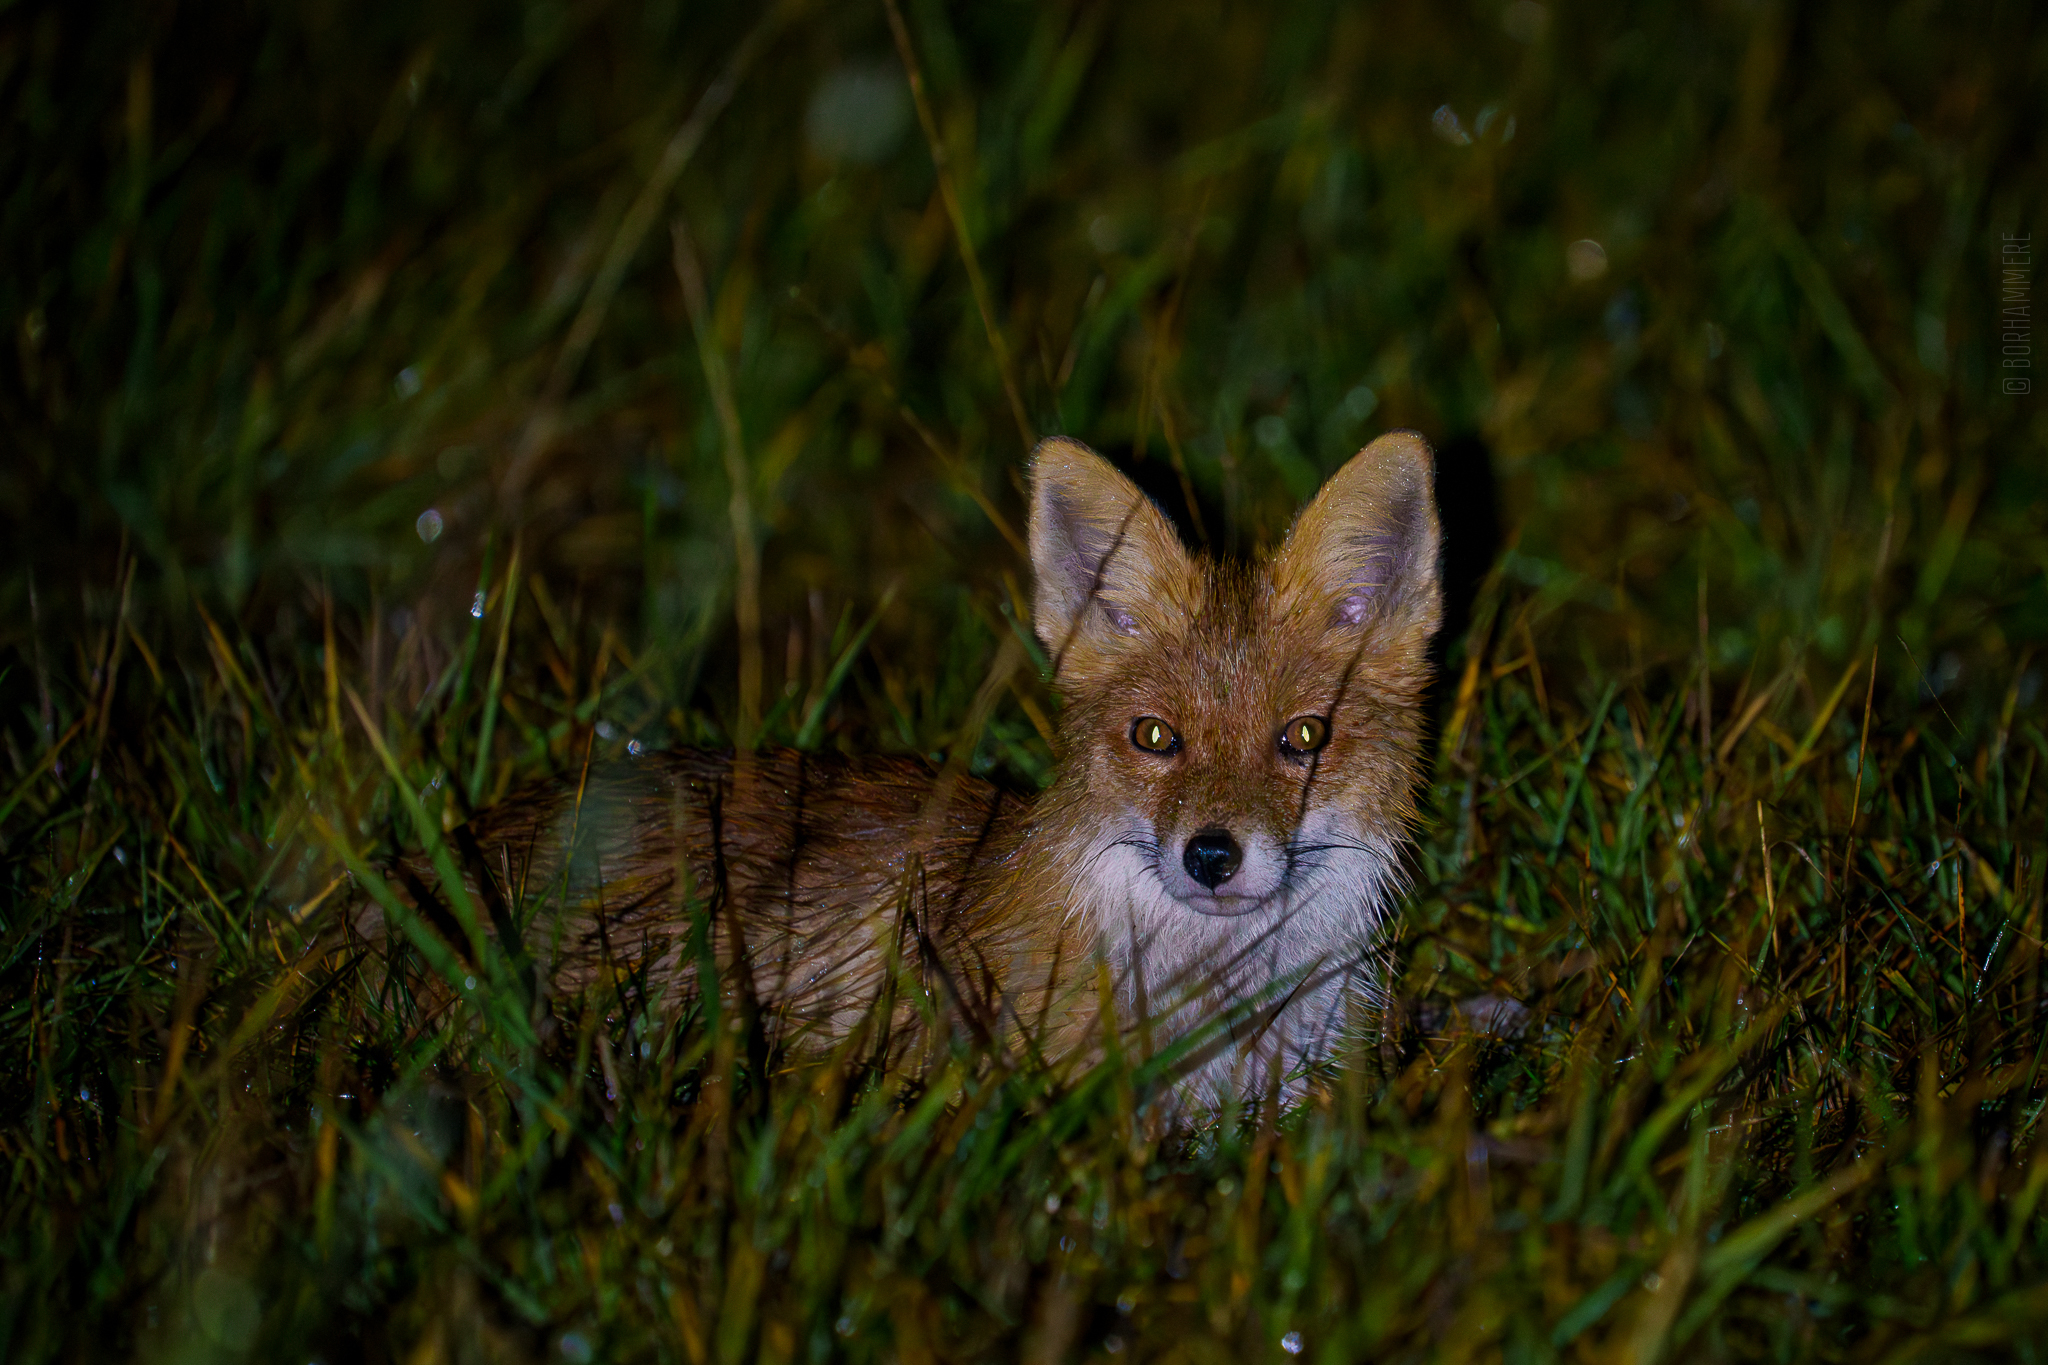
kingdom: Animalia
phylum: Chordata
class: Mammalia
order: Carnivora
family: Canidae
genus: Vulpes
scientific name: Vulpes vulpes
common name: Red fox
